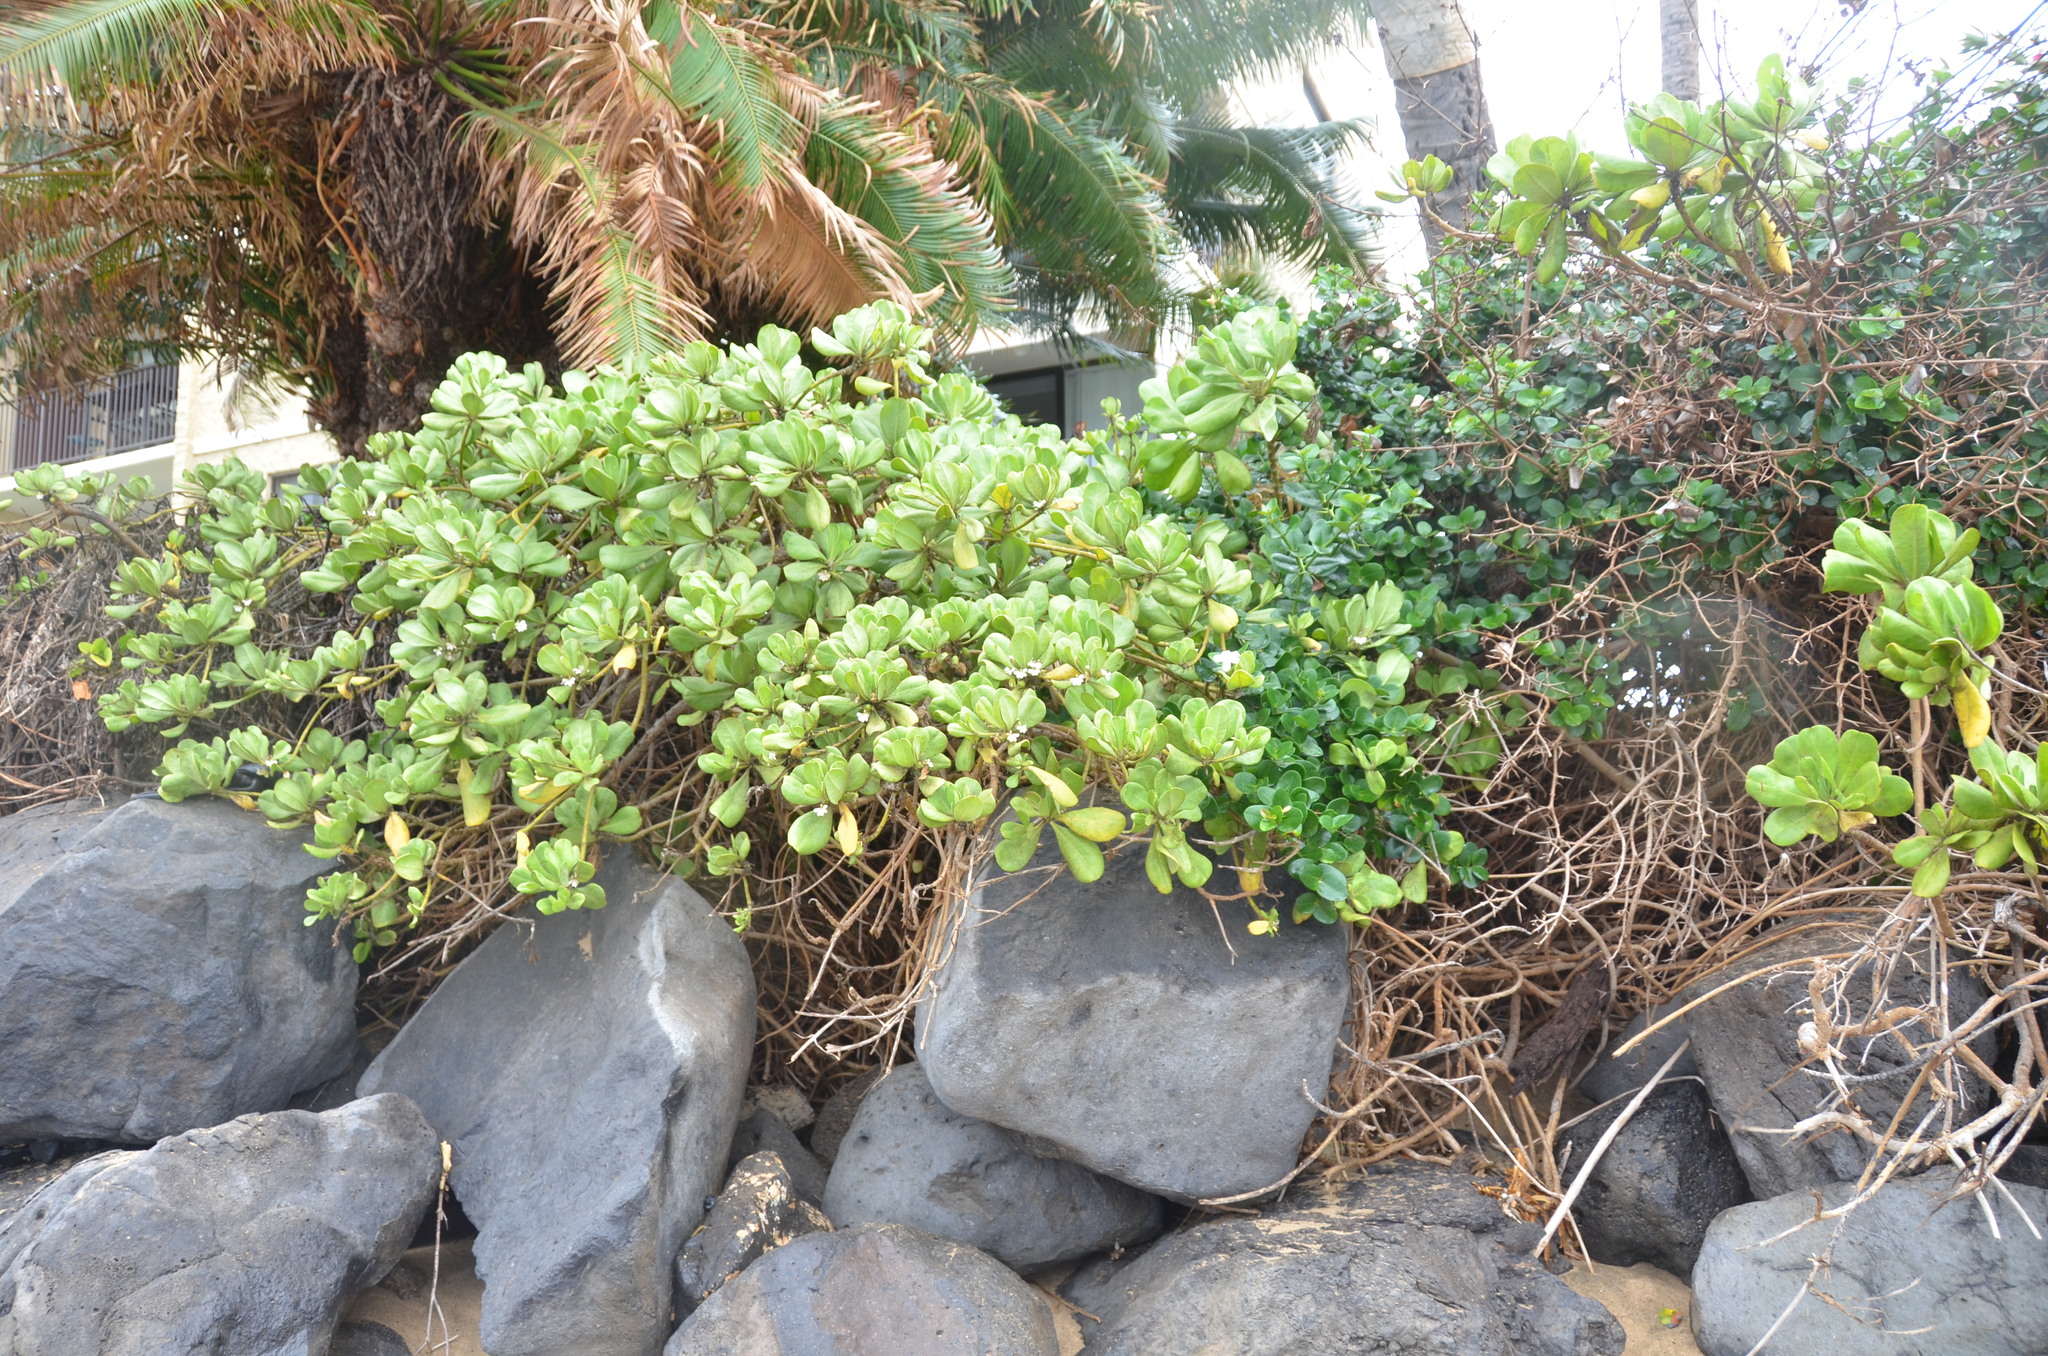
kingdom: Plantae
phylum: Tracheophyta
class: Magnoliopsida
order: Asterales
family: Goodeniaceae
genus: Scaevola
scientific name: Scaevola taccada
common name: Sea lettucetree
